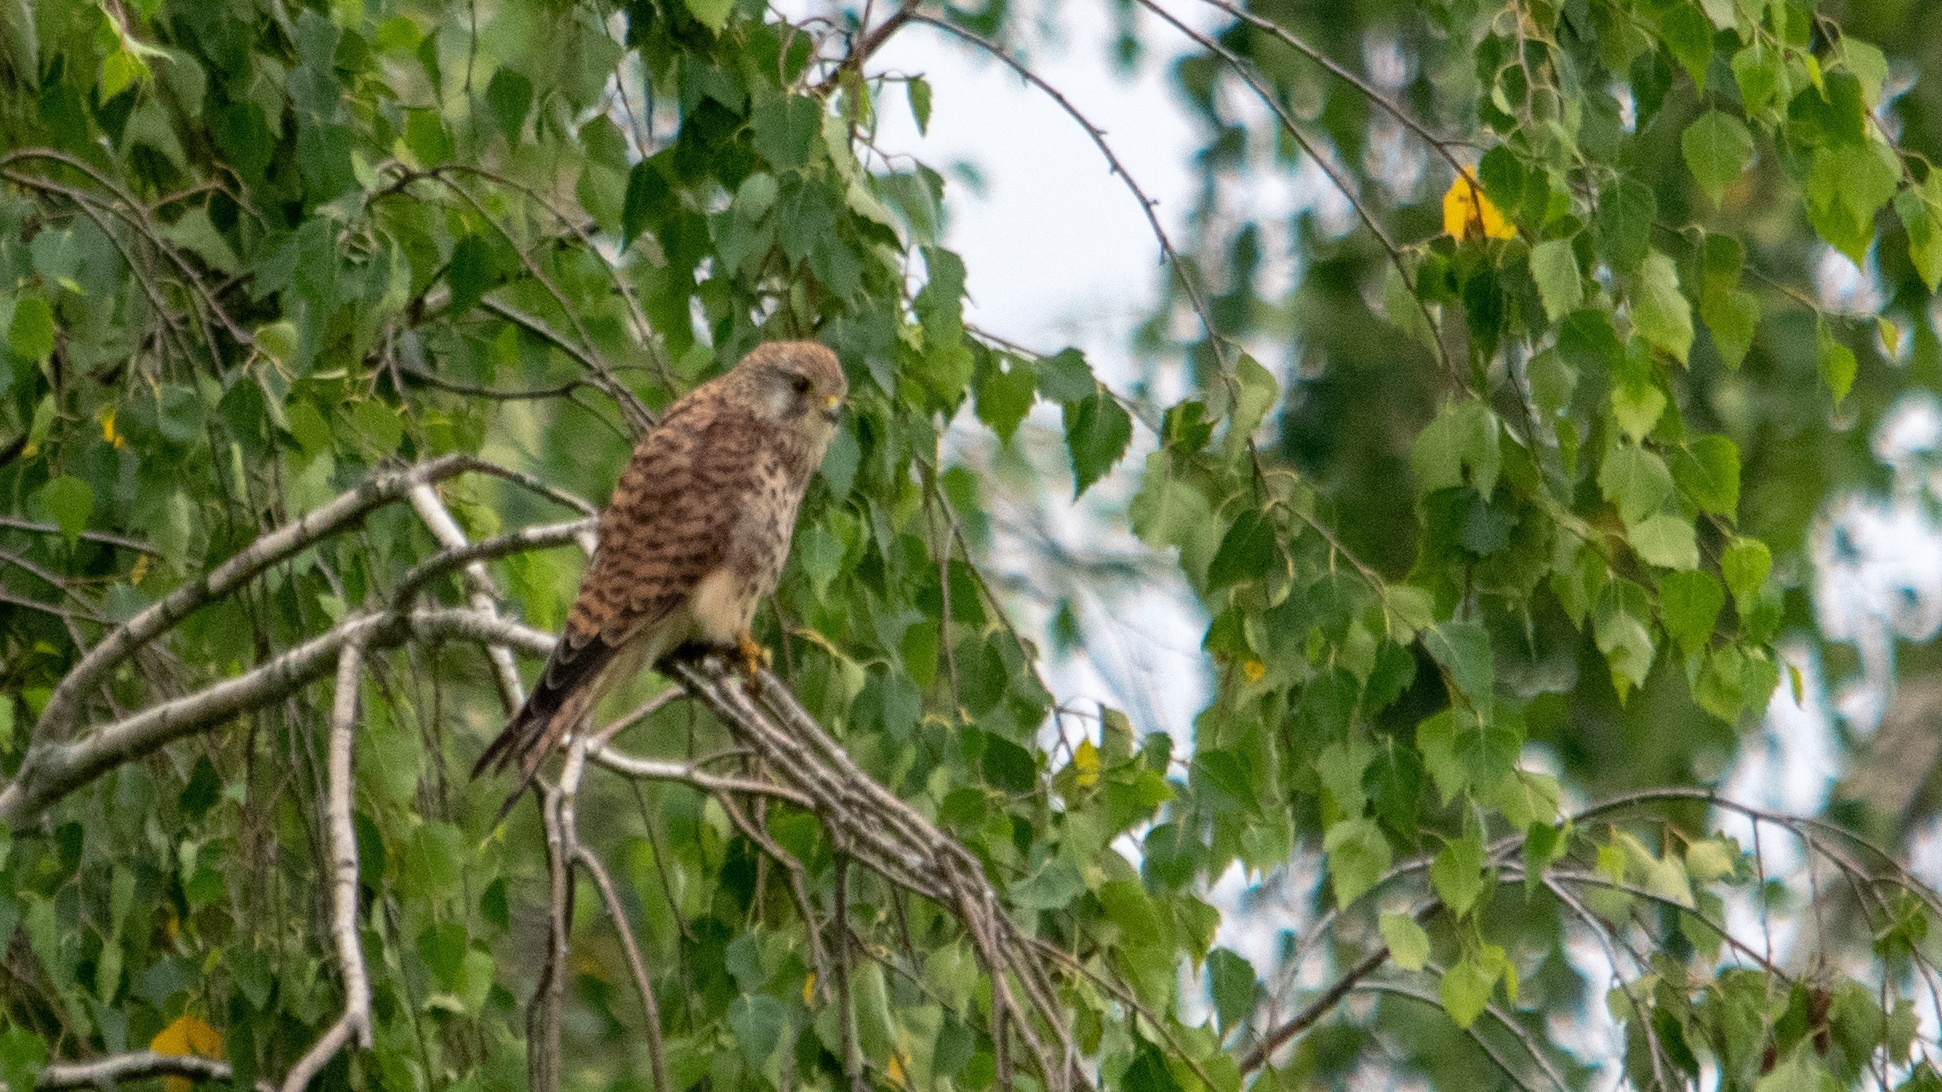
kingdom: Animalia
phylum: Chordata
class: Aves
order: Falconiformes
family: Falconidae
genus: Falco
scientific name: Falco tinnunculus
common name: Common kestrel
